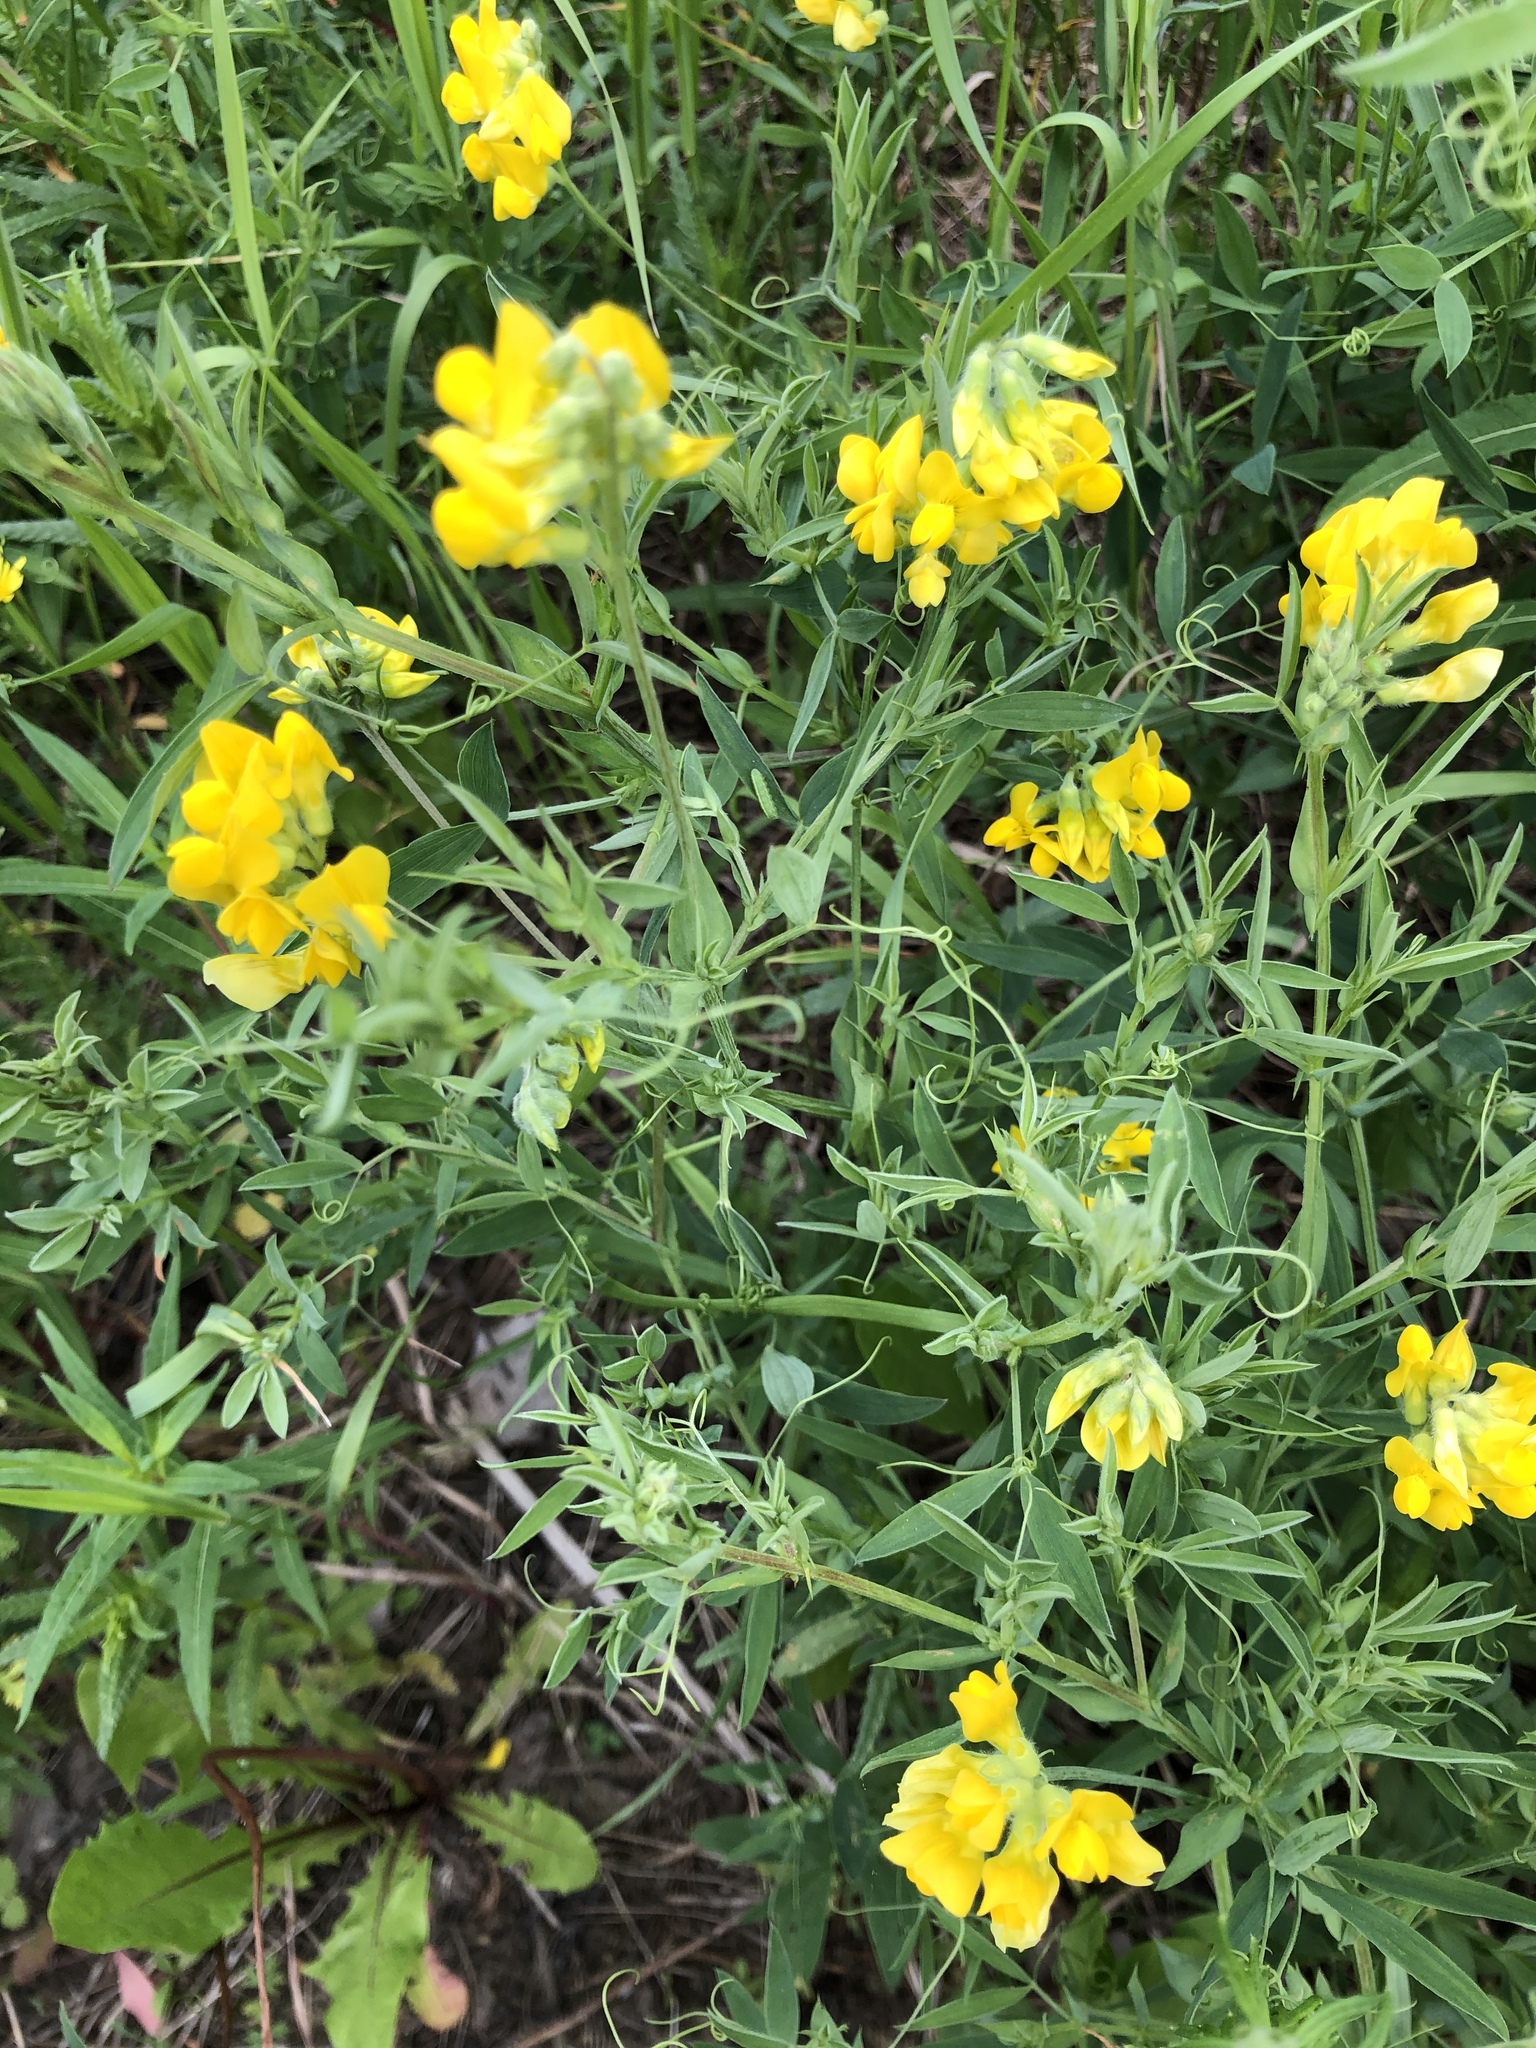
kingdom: Plantae
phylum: Tracheophyta
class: Magnoliopsida
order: Fabales
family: Fabaceae
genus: Lathyrus
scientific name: Lathyrus pratensis
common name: Meadow vetchling
